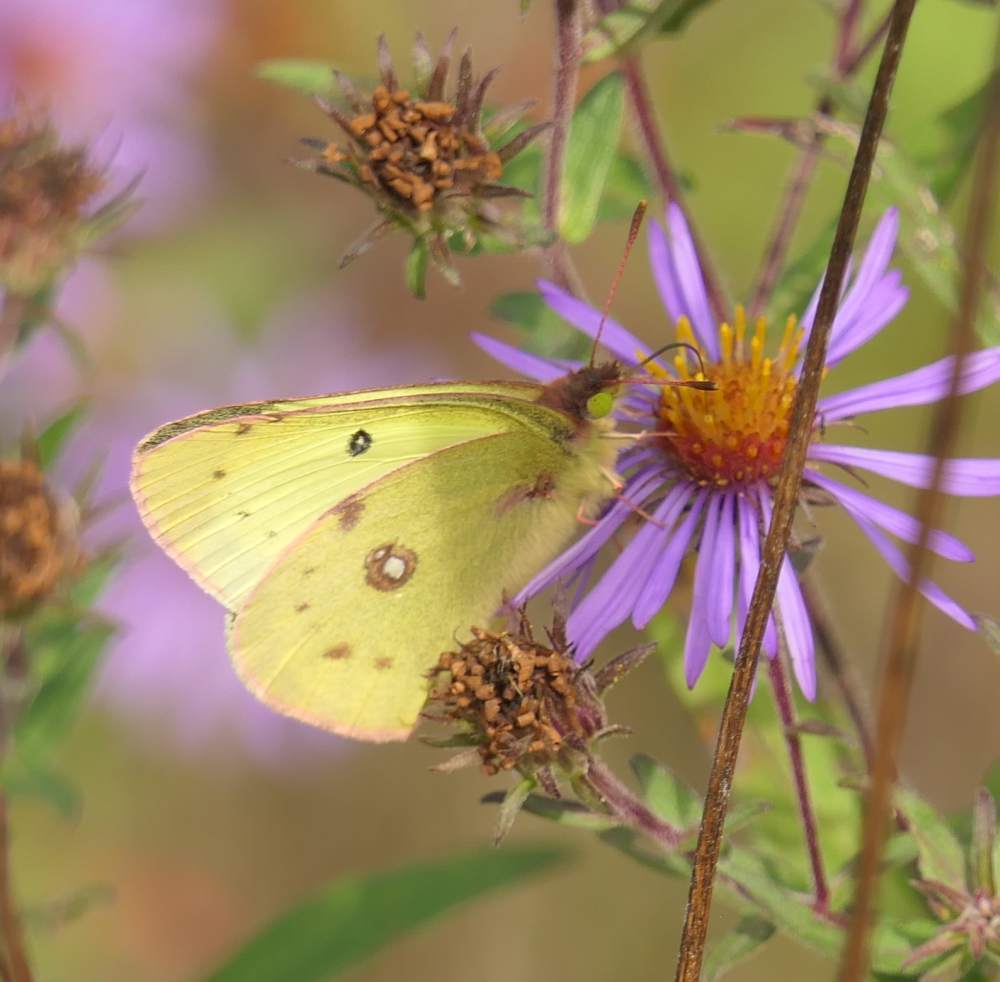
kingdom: Animalia
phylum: Arthropoda
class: Insecta
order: Lepidoptera
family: Pieridae
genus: Colias
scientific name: Colias philodice
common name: Clouded sulphur
